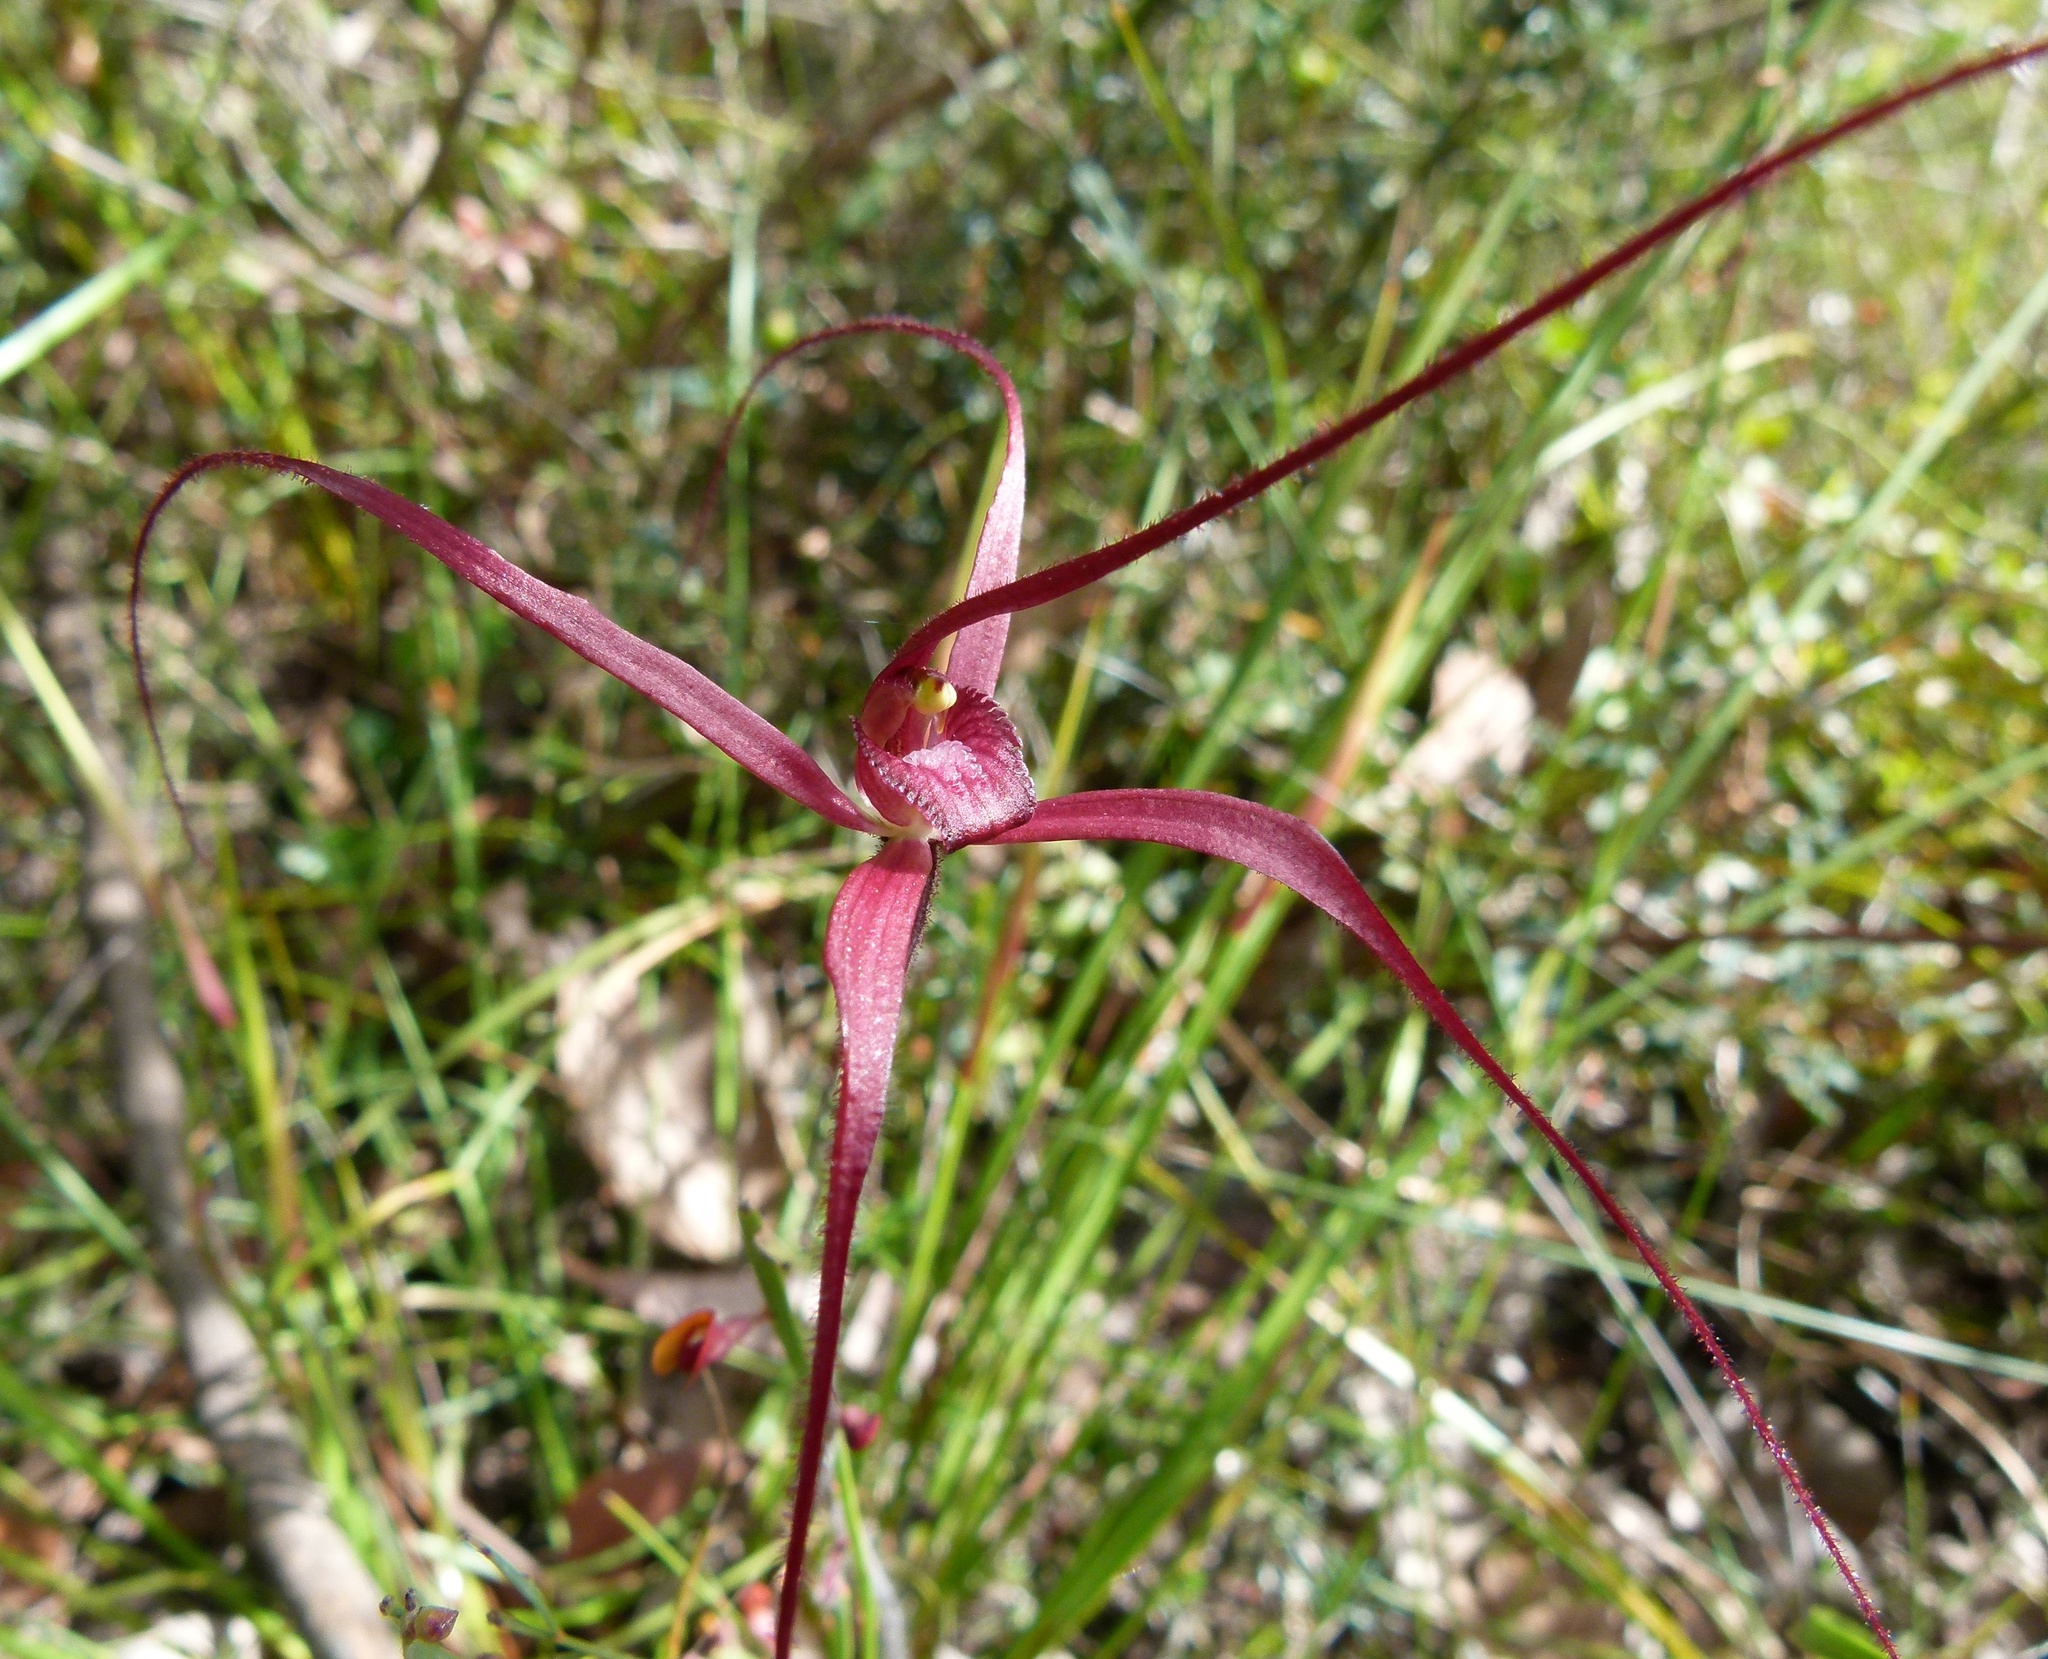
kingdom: Plantae
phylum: Tracheophyta
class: Liliopsida
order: Asparagales
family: Orchidaceae
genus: Caladenia
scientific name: Caladenia filifera
